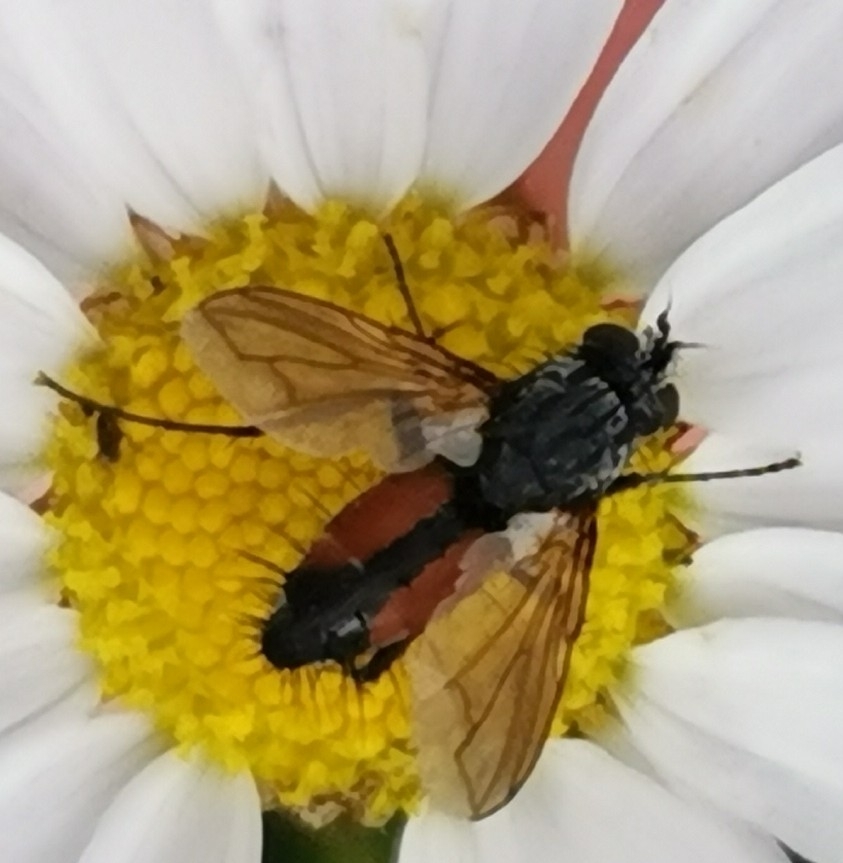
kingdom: Animalia
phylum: Arthropoda
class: Insecta
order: Diptera
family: Tachinidae
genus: Eriothrix
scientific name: Eriothrix rufomaculatus
